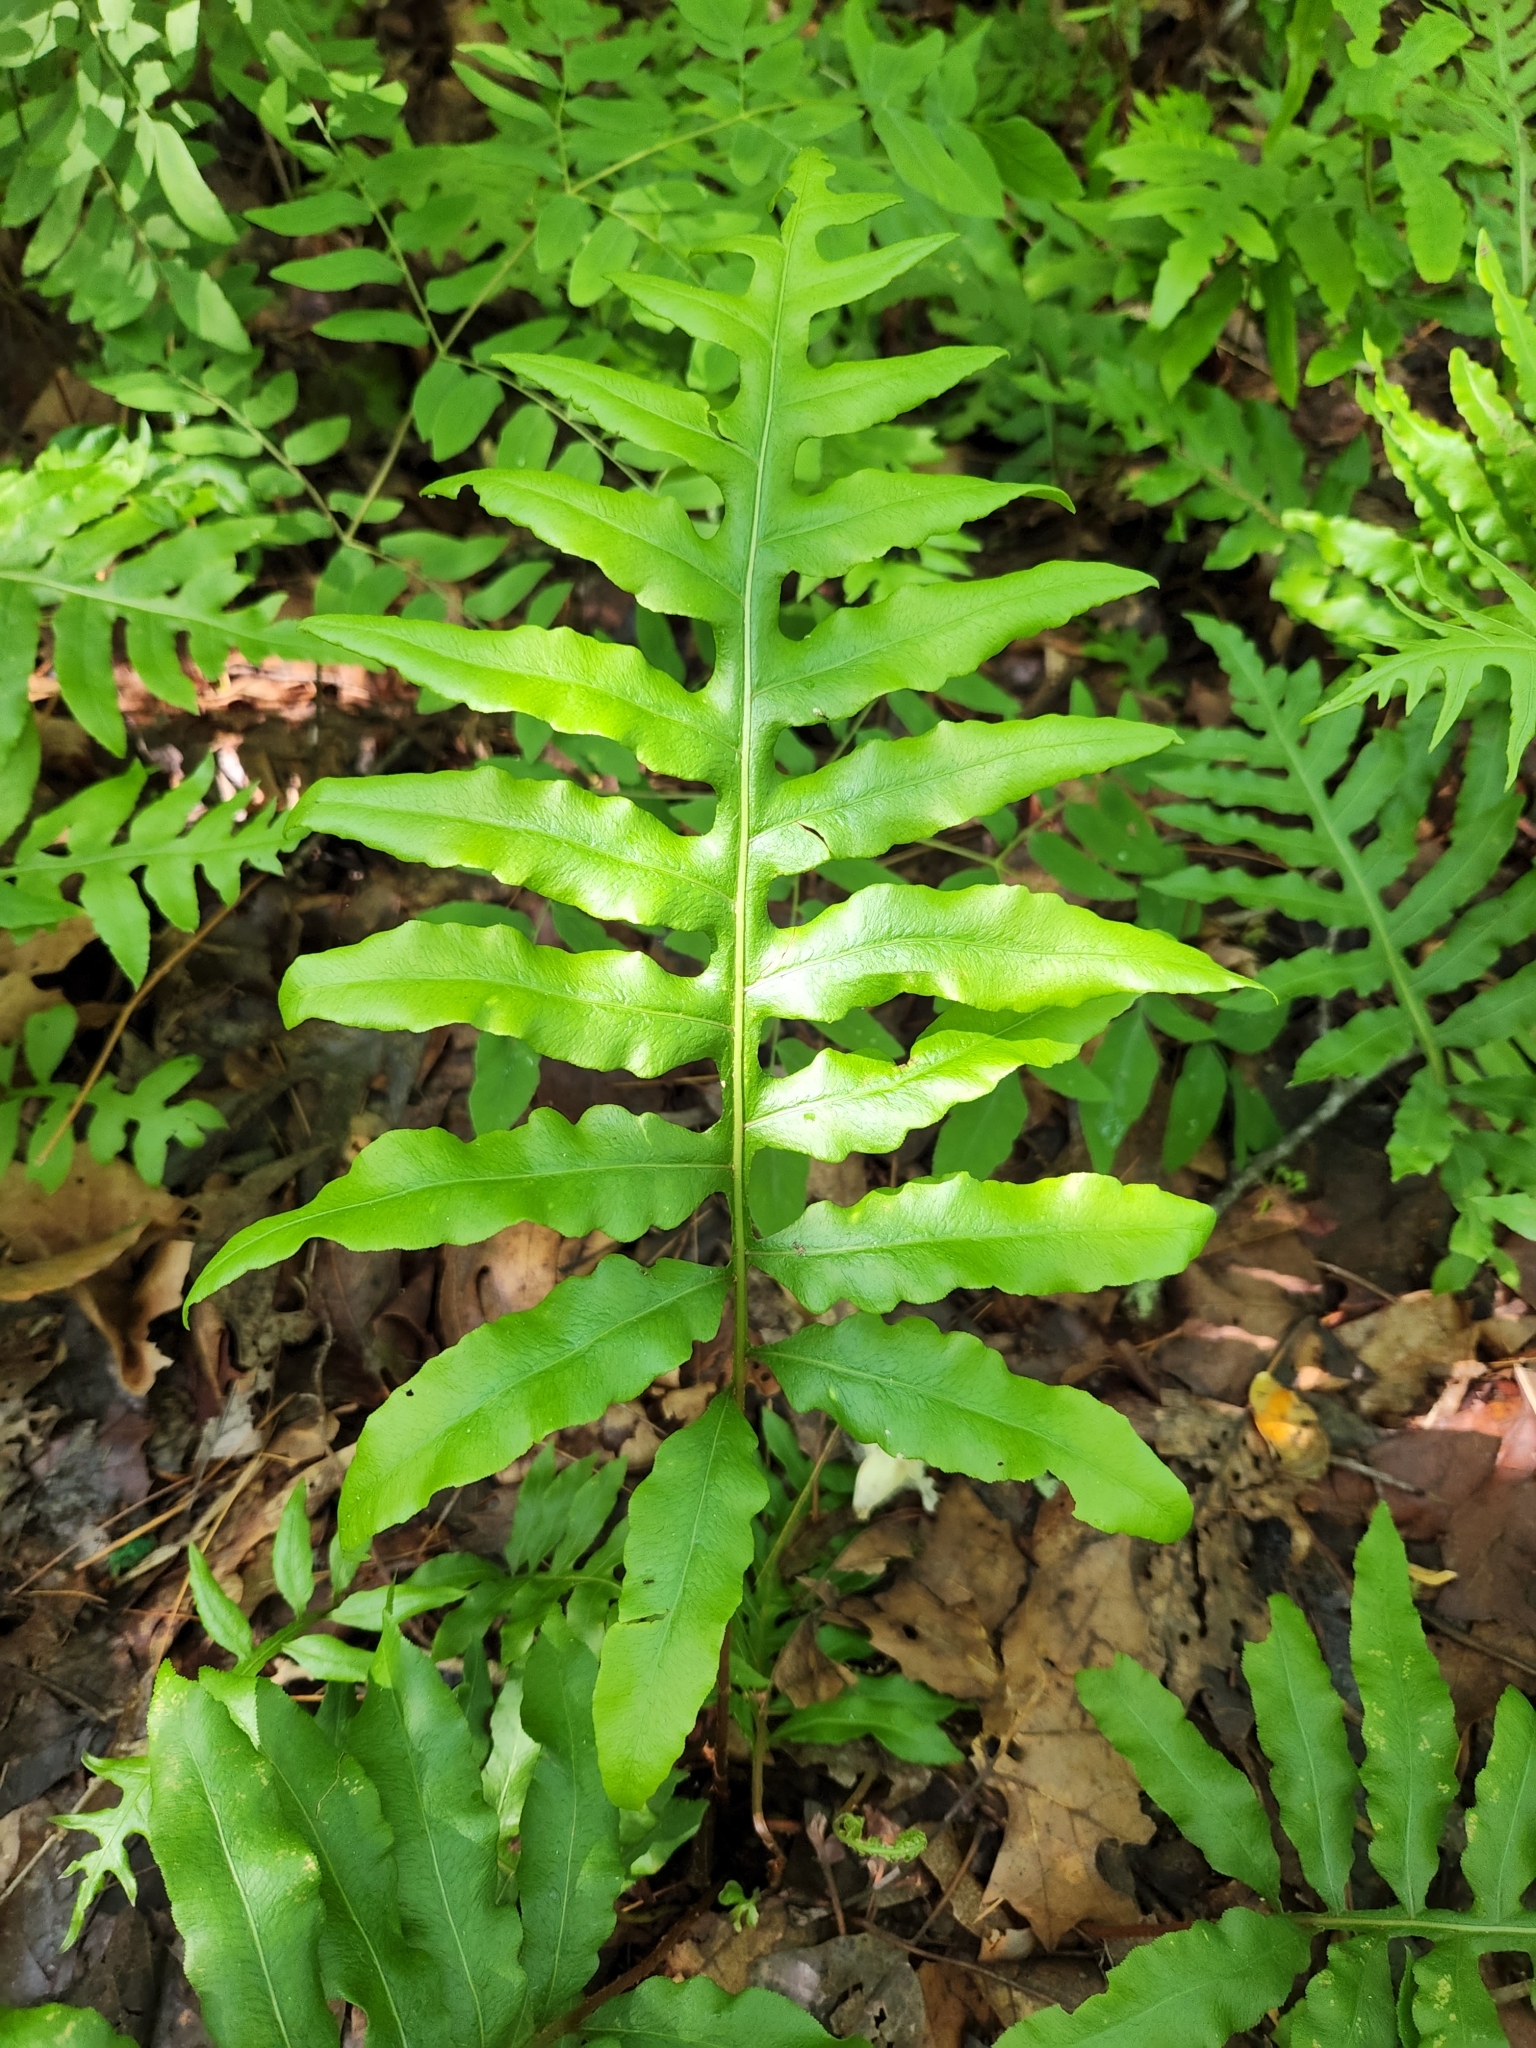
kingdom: Plantae
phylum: Tracheophyta
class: Polypodiopsida
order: Polypodiales
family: Blechnaceae
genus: Lorinseria
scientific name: Lorinseria areolata
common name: Dwarf chain fern
